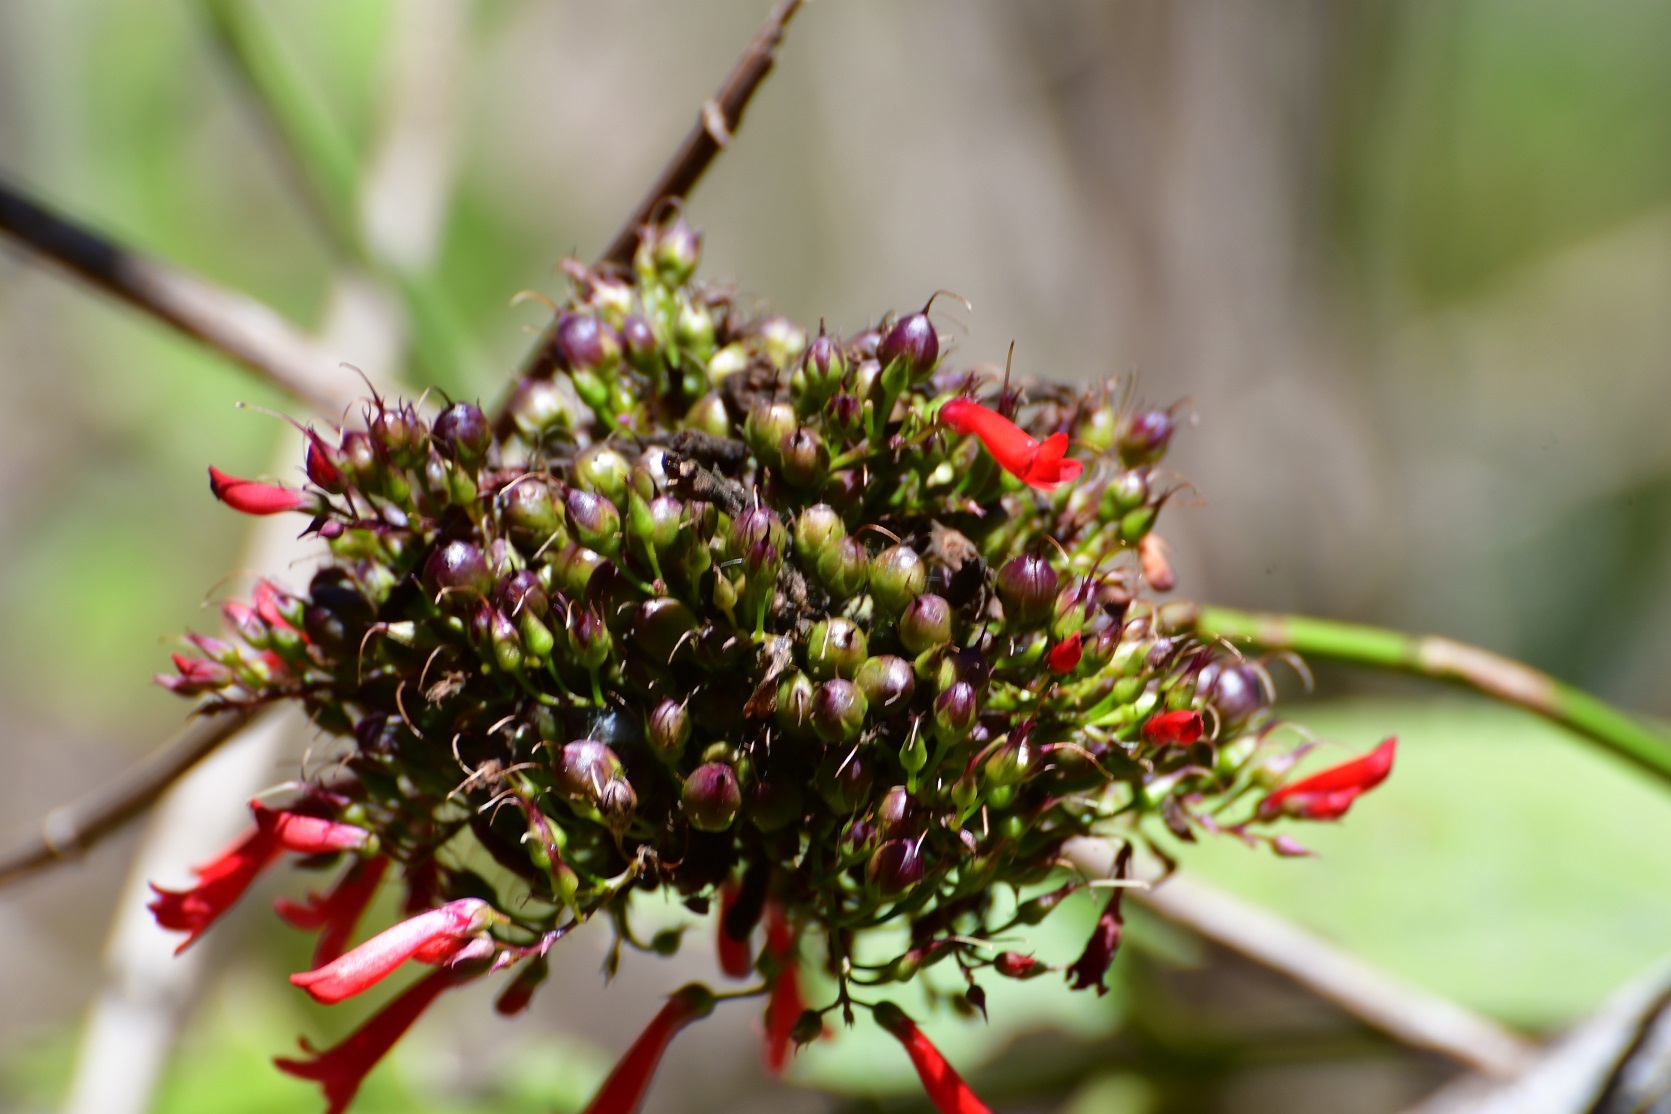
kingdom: Plantae
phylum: Tracheophyta
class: Magnoliopsida
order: Lamiales
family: Plantaginaceae
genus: Russelia
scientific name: Russelia verticillata
